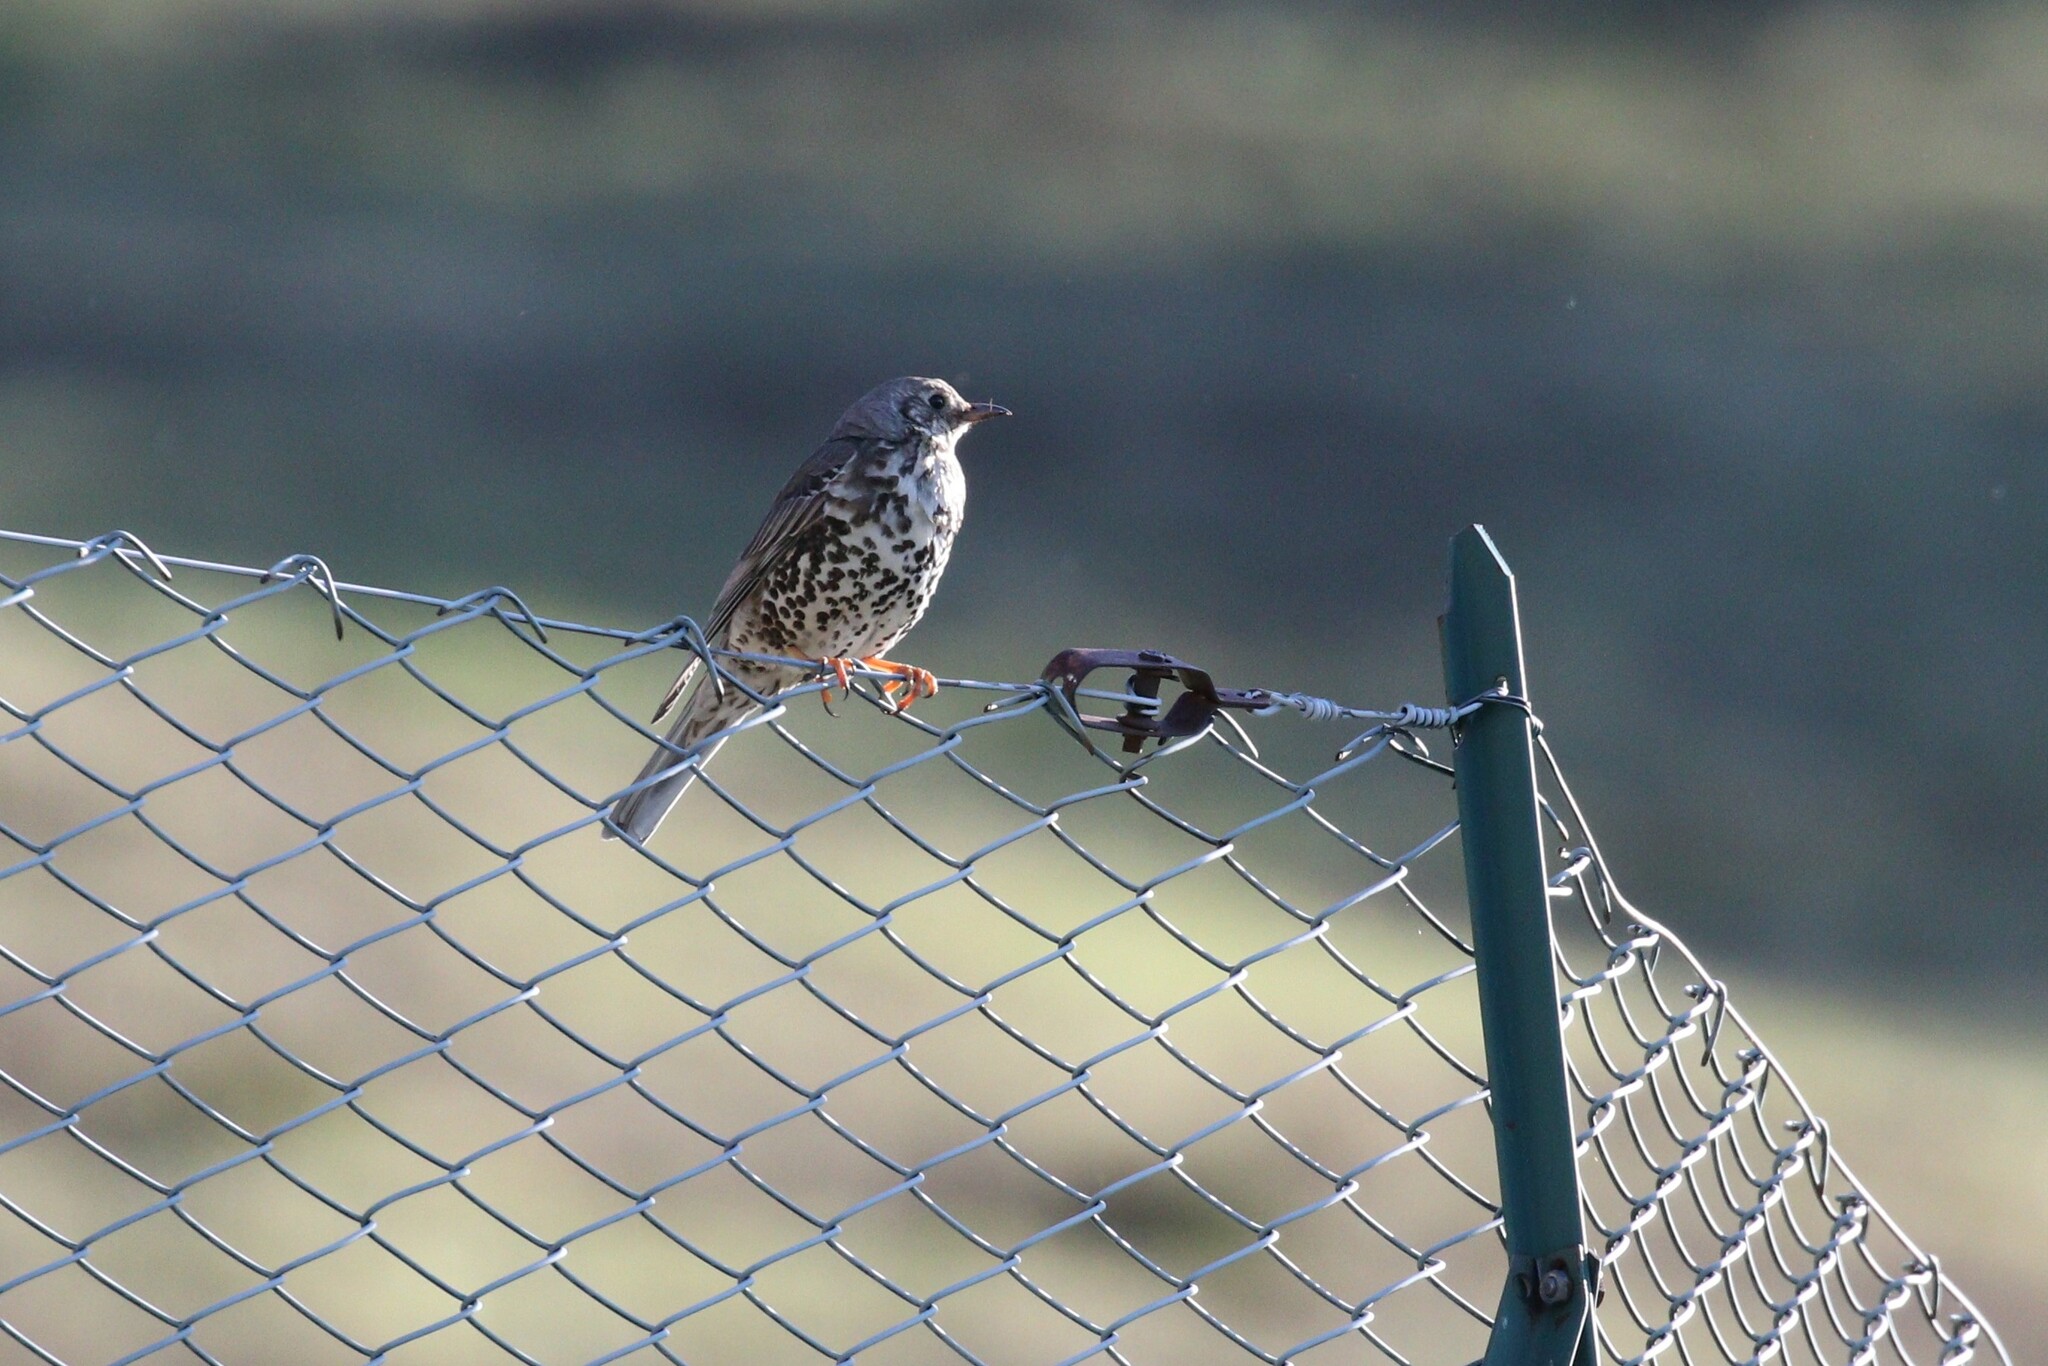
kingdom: Animalia
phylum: Chordata
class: Aves
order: Passeriformes
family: Turdidae
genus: Turdus
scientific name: Turdus viscivorus
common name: Mistle thrush
